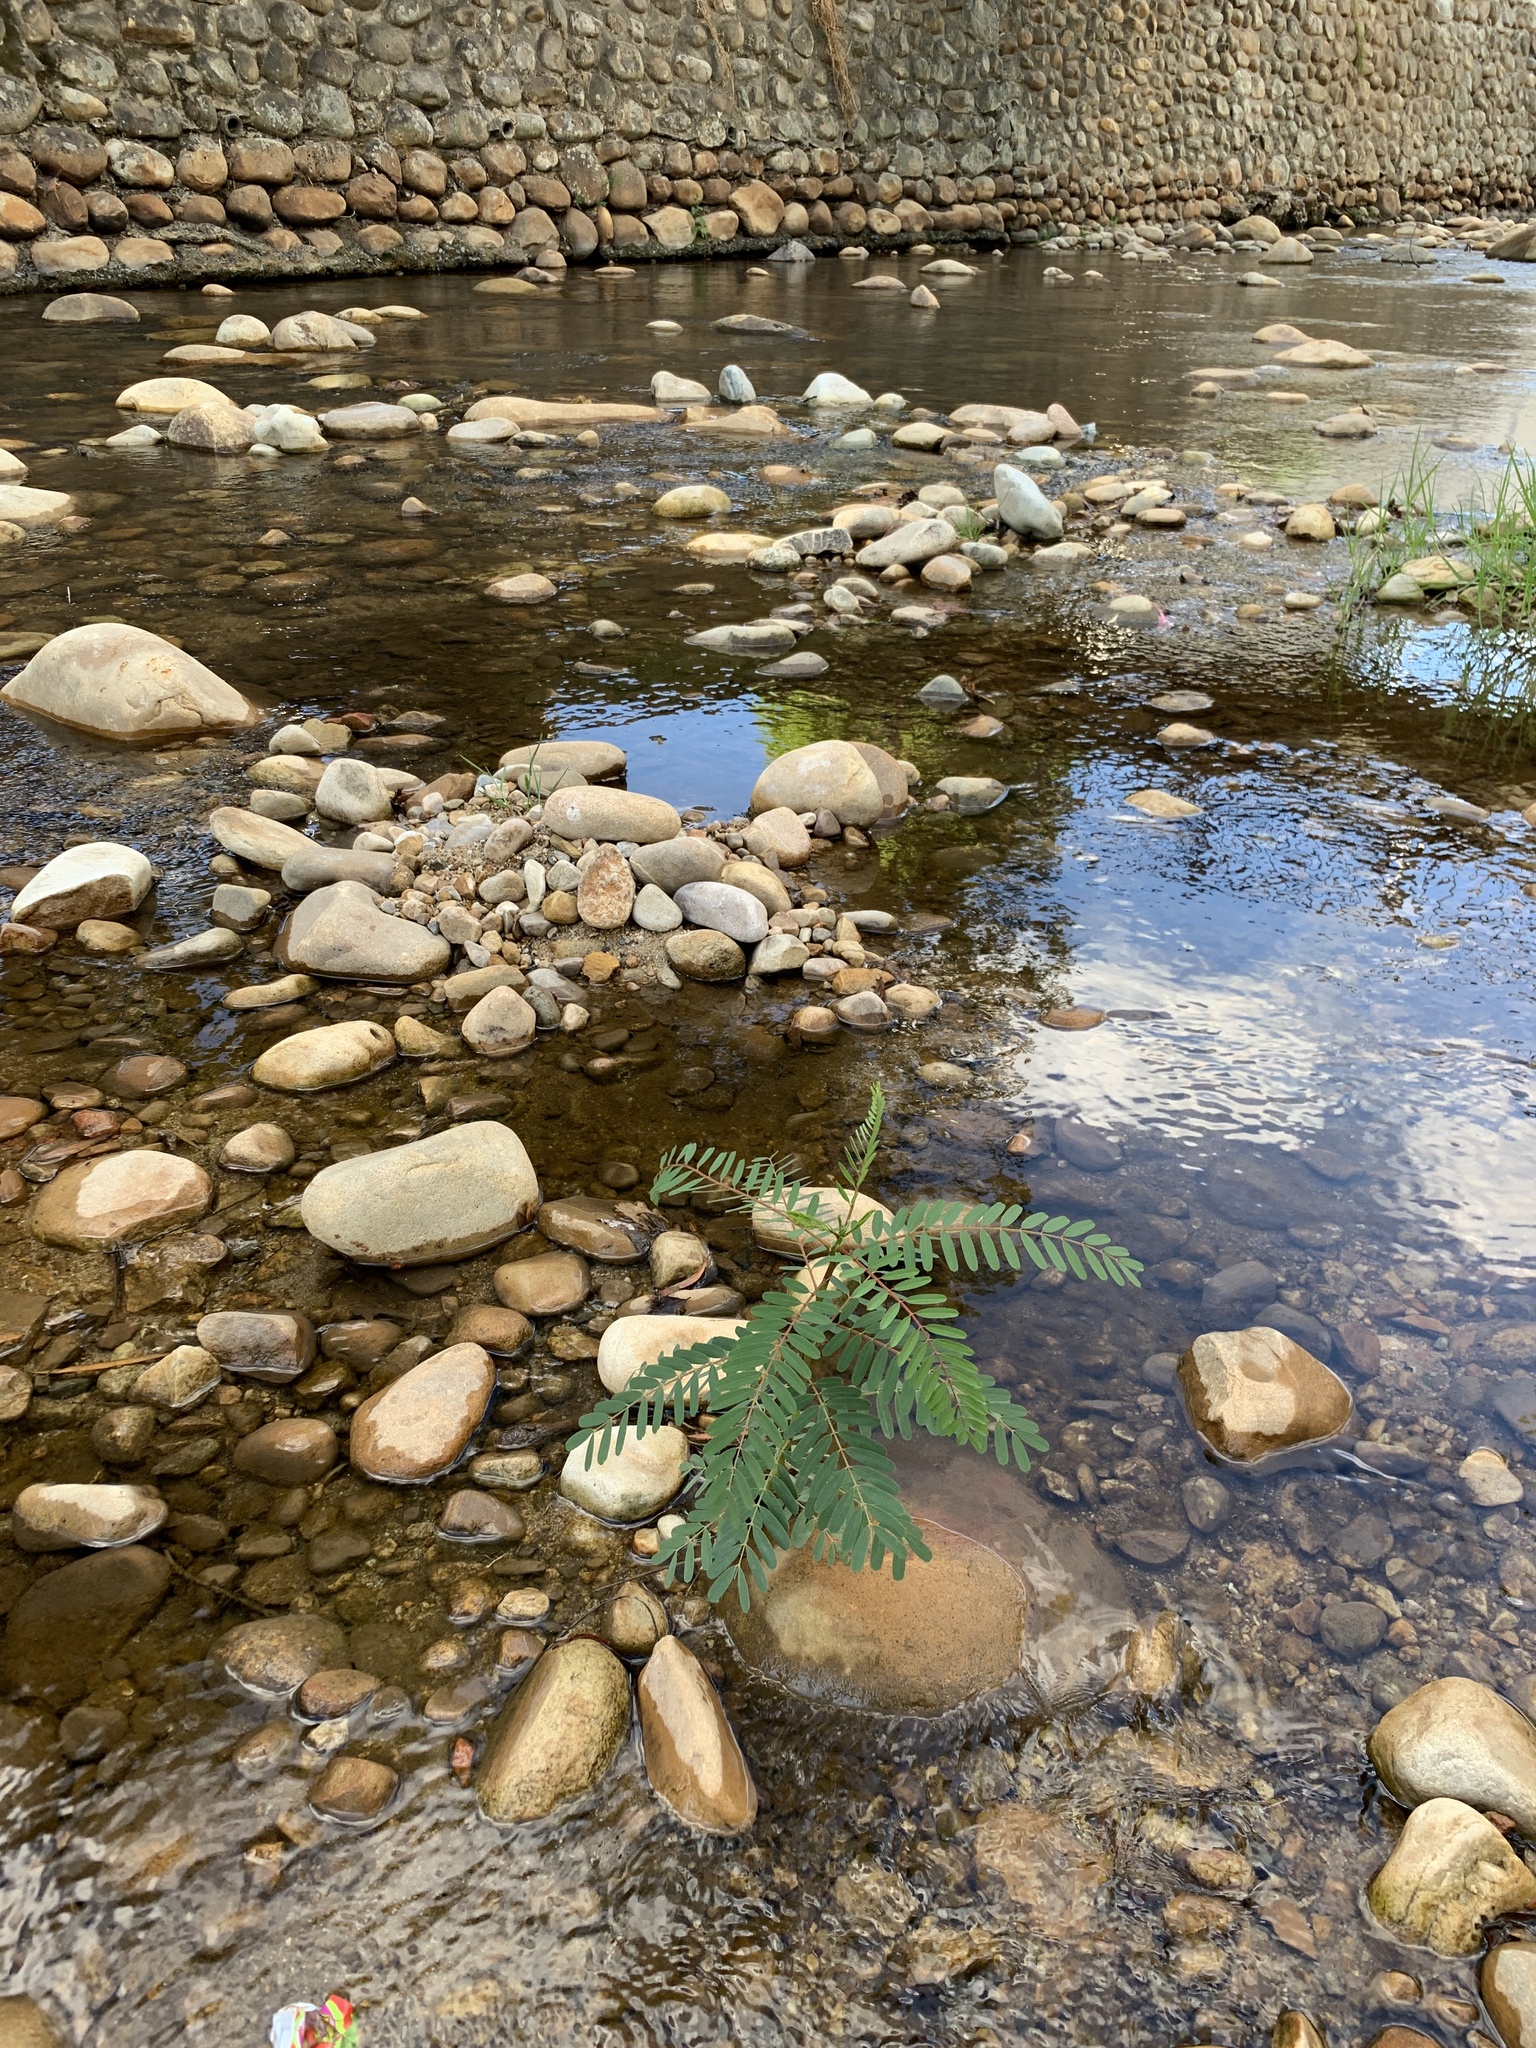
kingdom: Plantae
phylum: Tracheophyta
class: Magnoliopsida
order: Fabales
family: Fabaceae
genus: Sesbania
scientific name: Sesbania punicea
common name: Rattlebox
